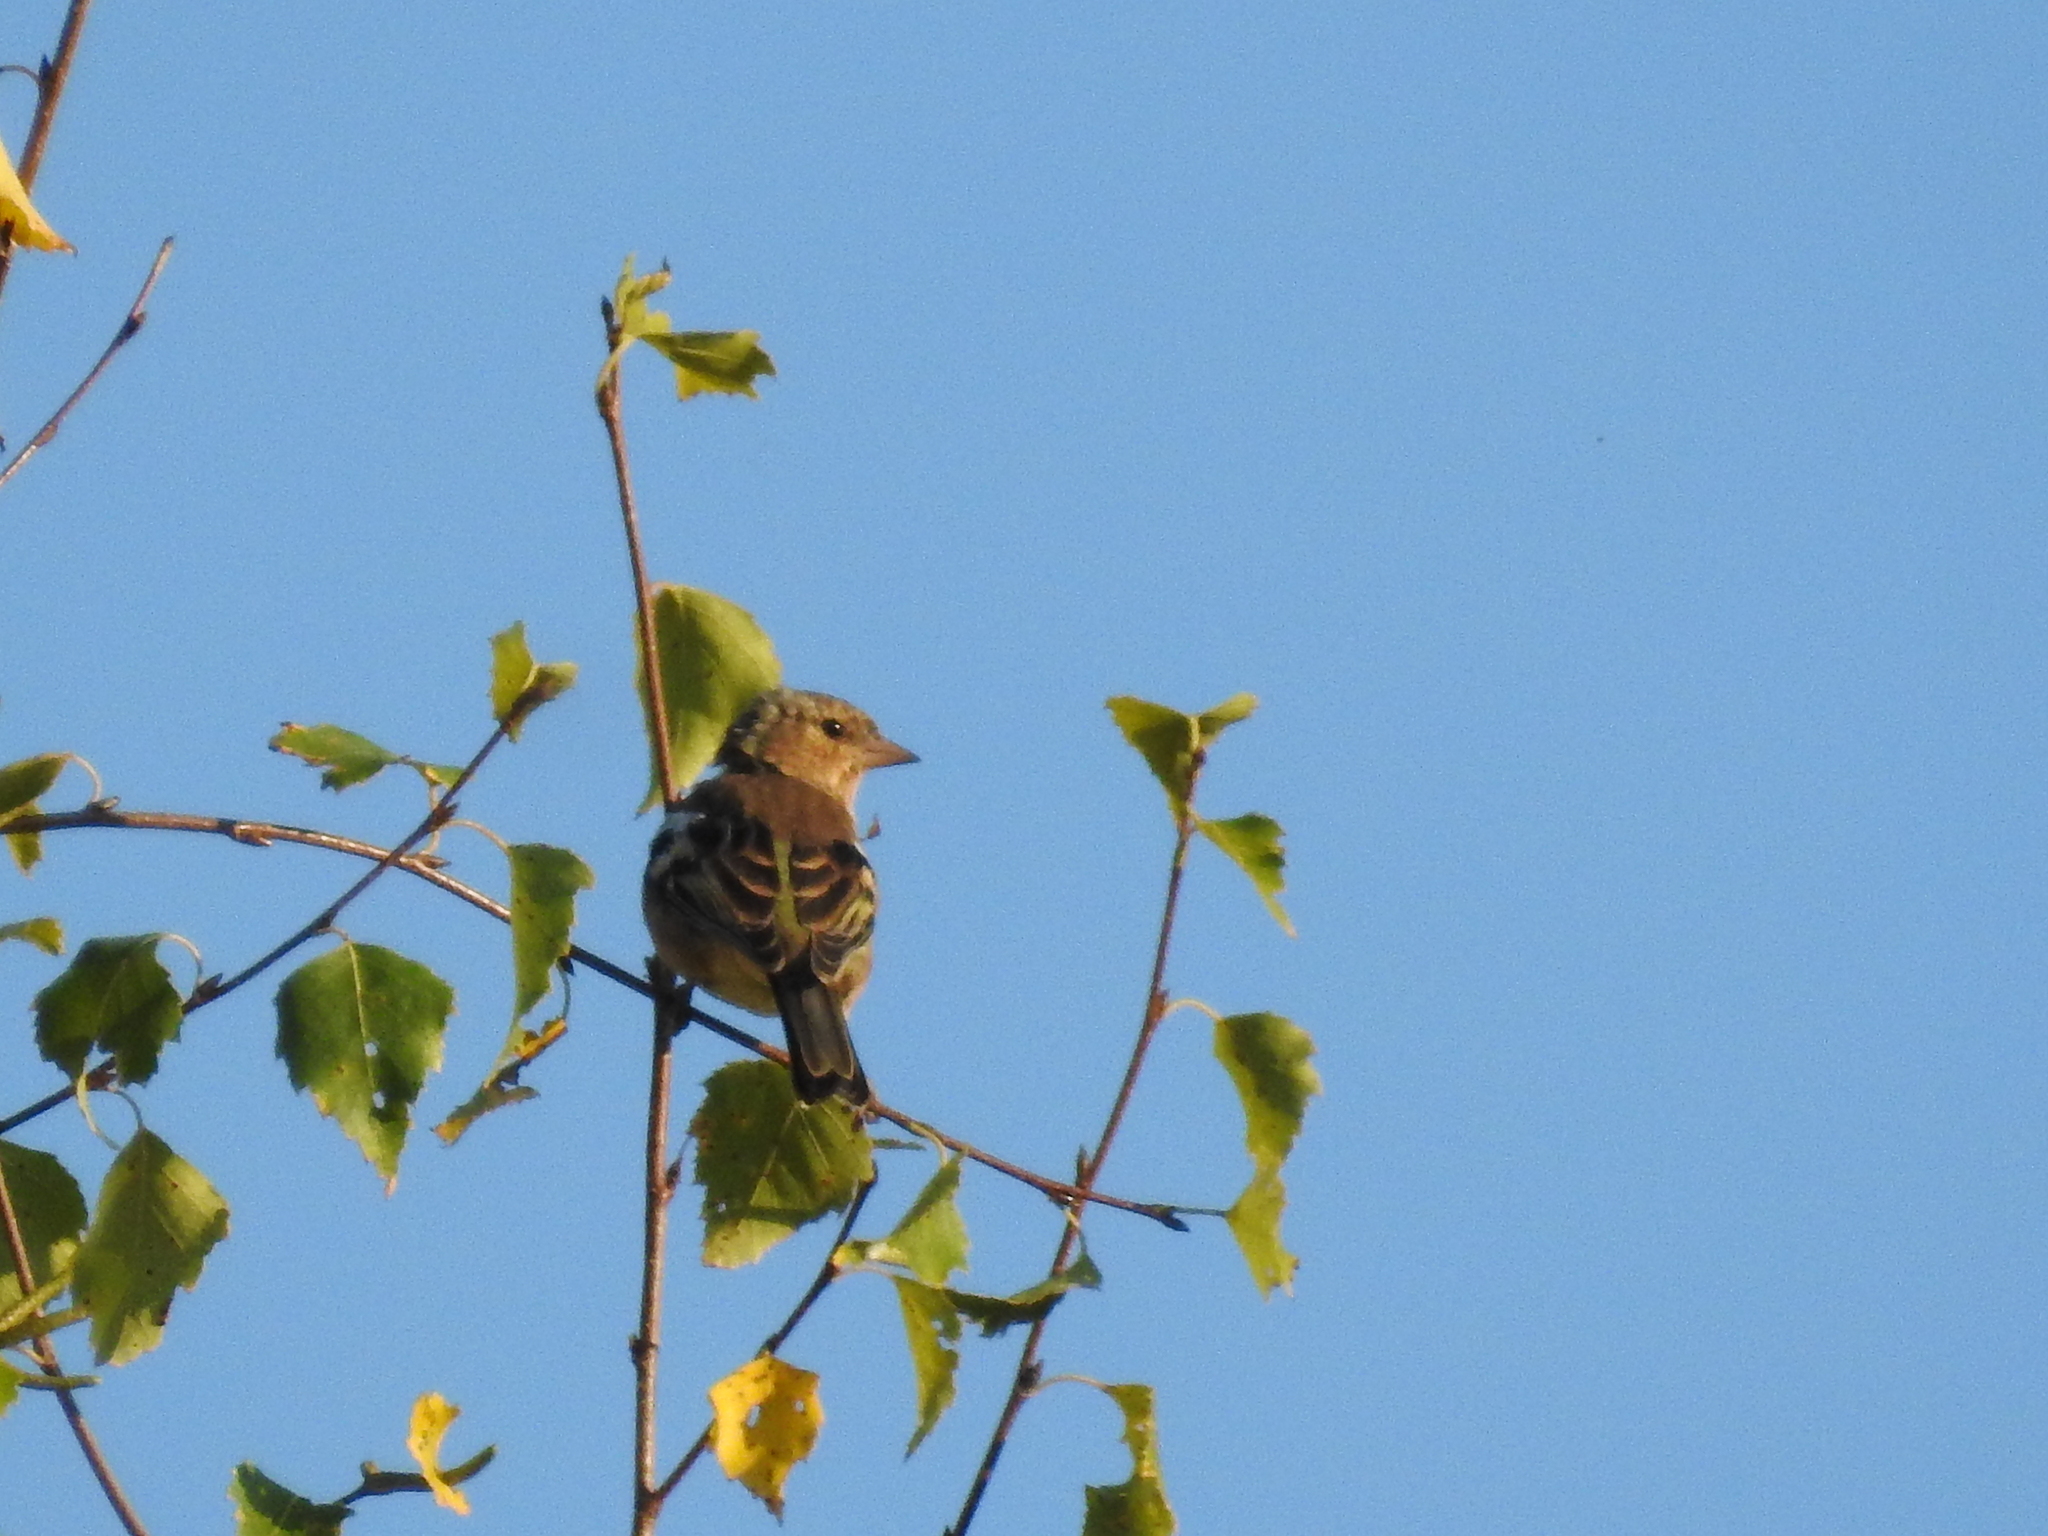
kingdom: Animalia
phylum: Chordata
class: Aves
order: Passeriformes
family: Fringillidae
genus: Fringilla
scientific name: Fringilla coelebs
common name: Common chaffinch
